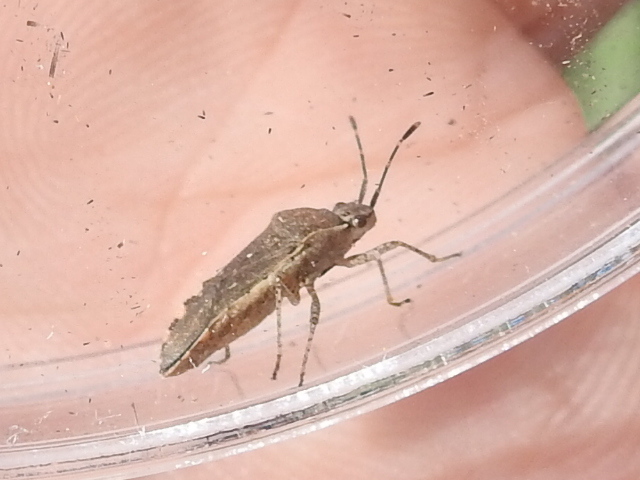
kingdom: Animalia
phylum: Arthropoda
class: Insecta
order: Hemiptera
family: Coreidae
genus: Catorhintha
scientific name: Catorhintha guttula
